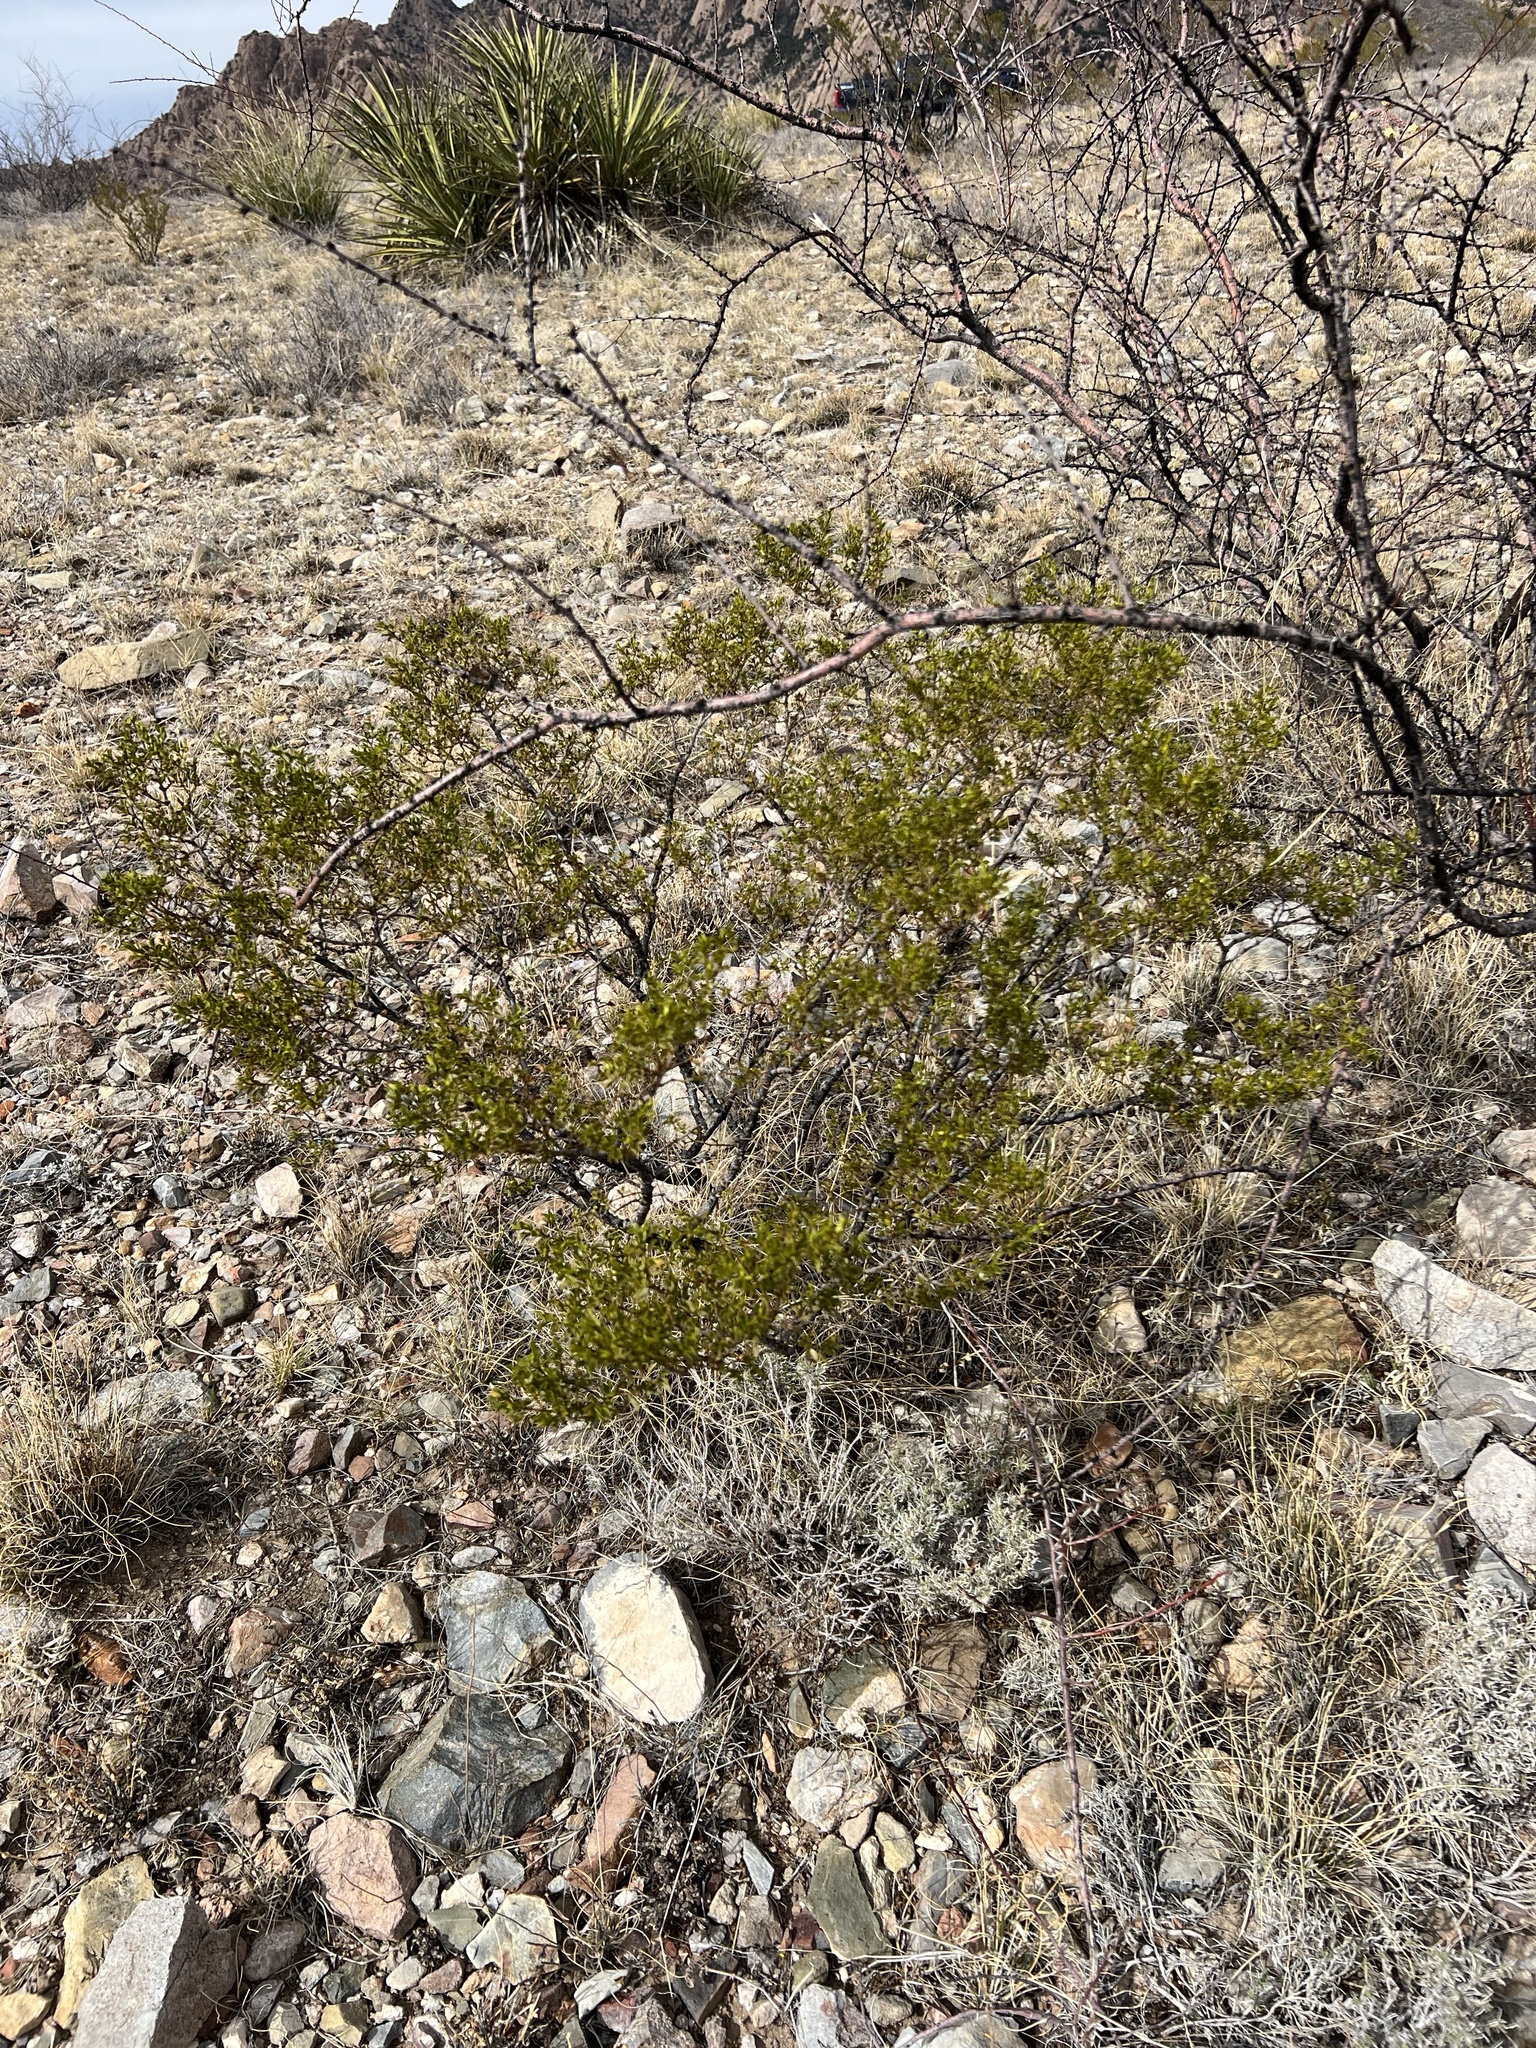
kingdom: Plantae
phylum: Tracheophyta
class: Magnoliopsida
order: Zygophyllales
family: Zygophyllaceae
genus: Larrea
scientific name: Larrea tridentata
